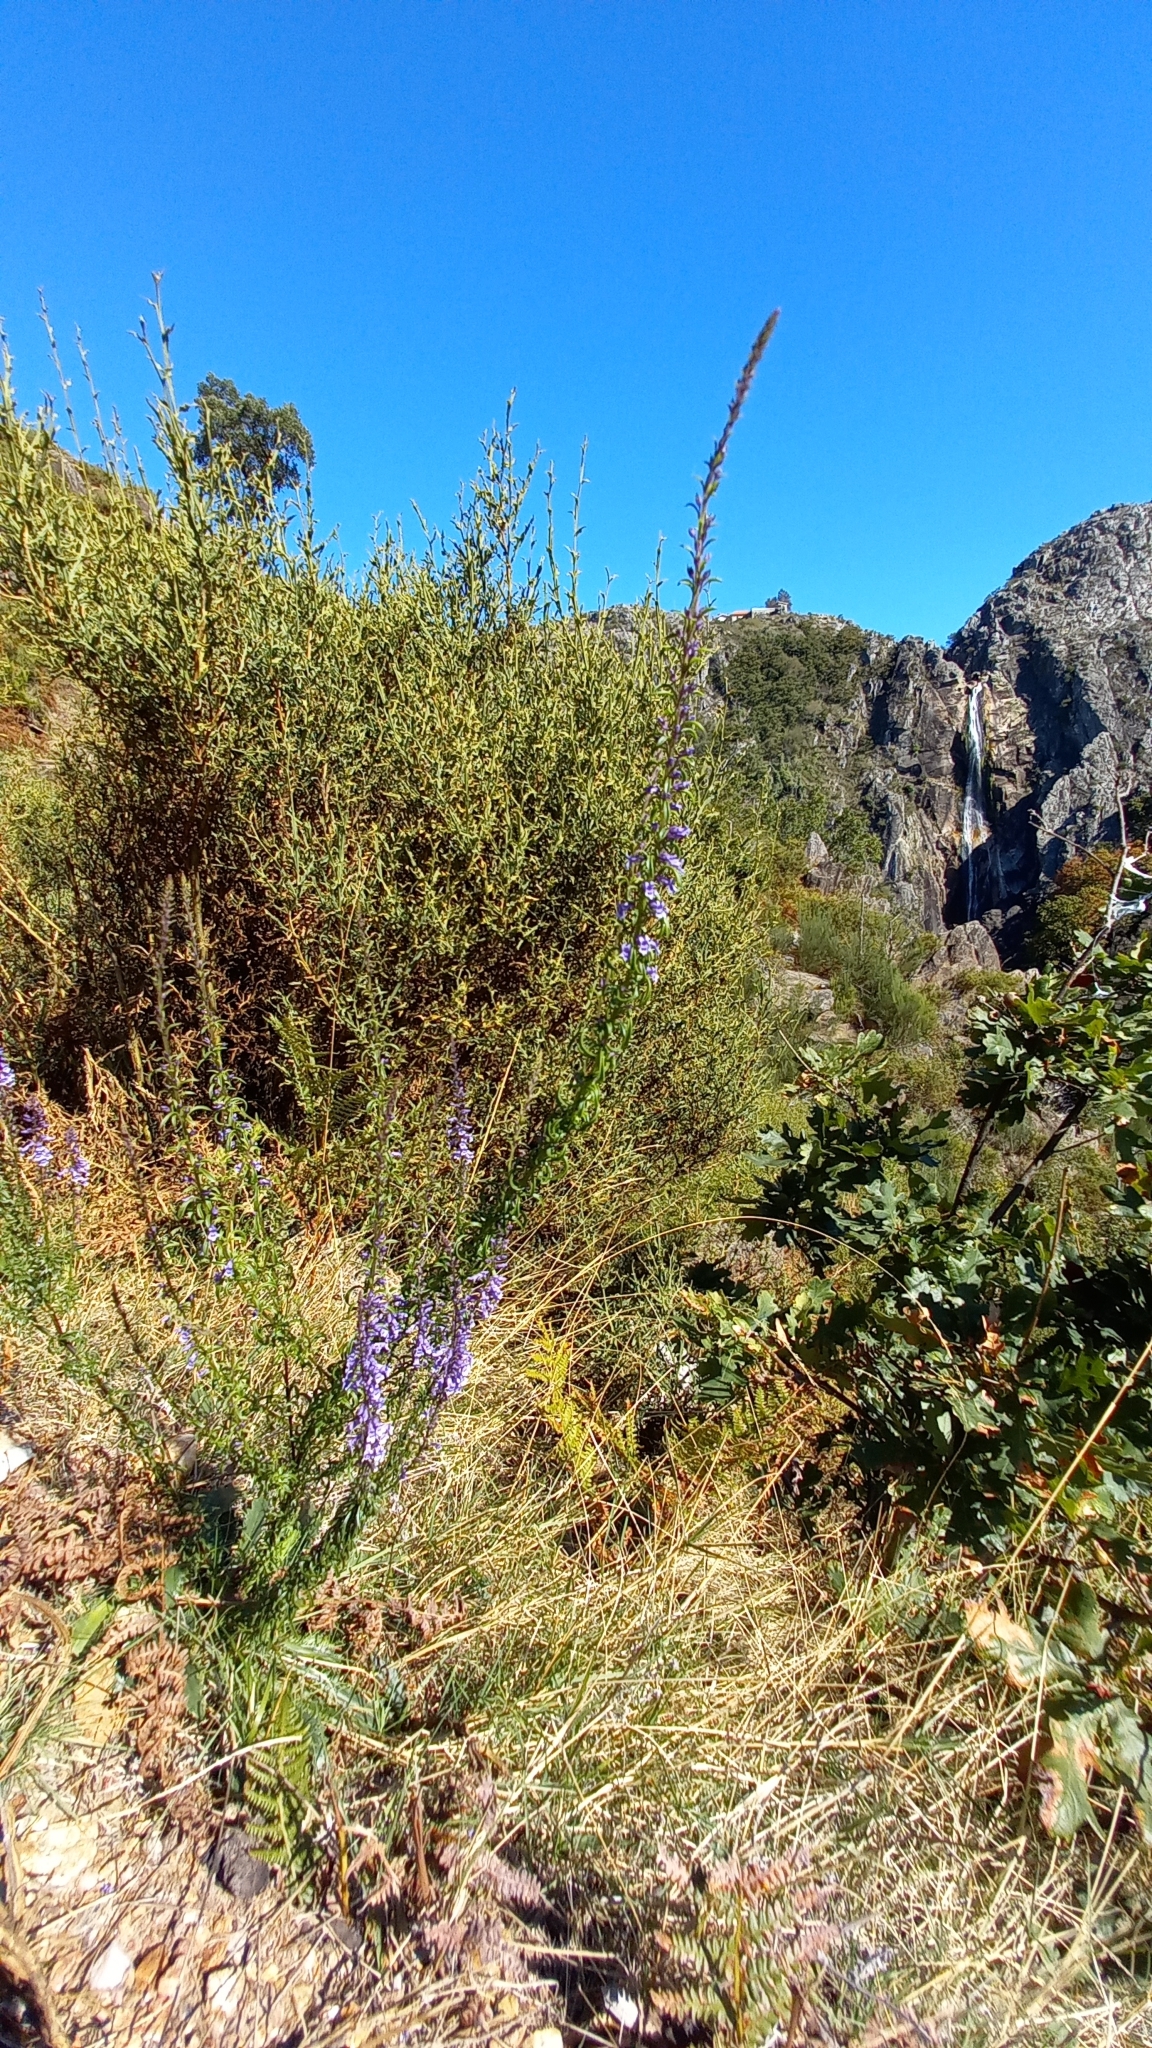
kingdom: Plantae
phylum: Tracheophyta
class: Magnoliopsida
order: Lamiales
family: Plantaginaceae
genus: Anarrhinum
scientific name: Anarrhinum longipedicellatum
